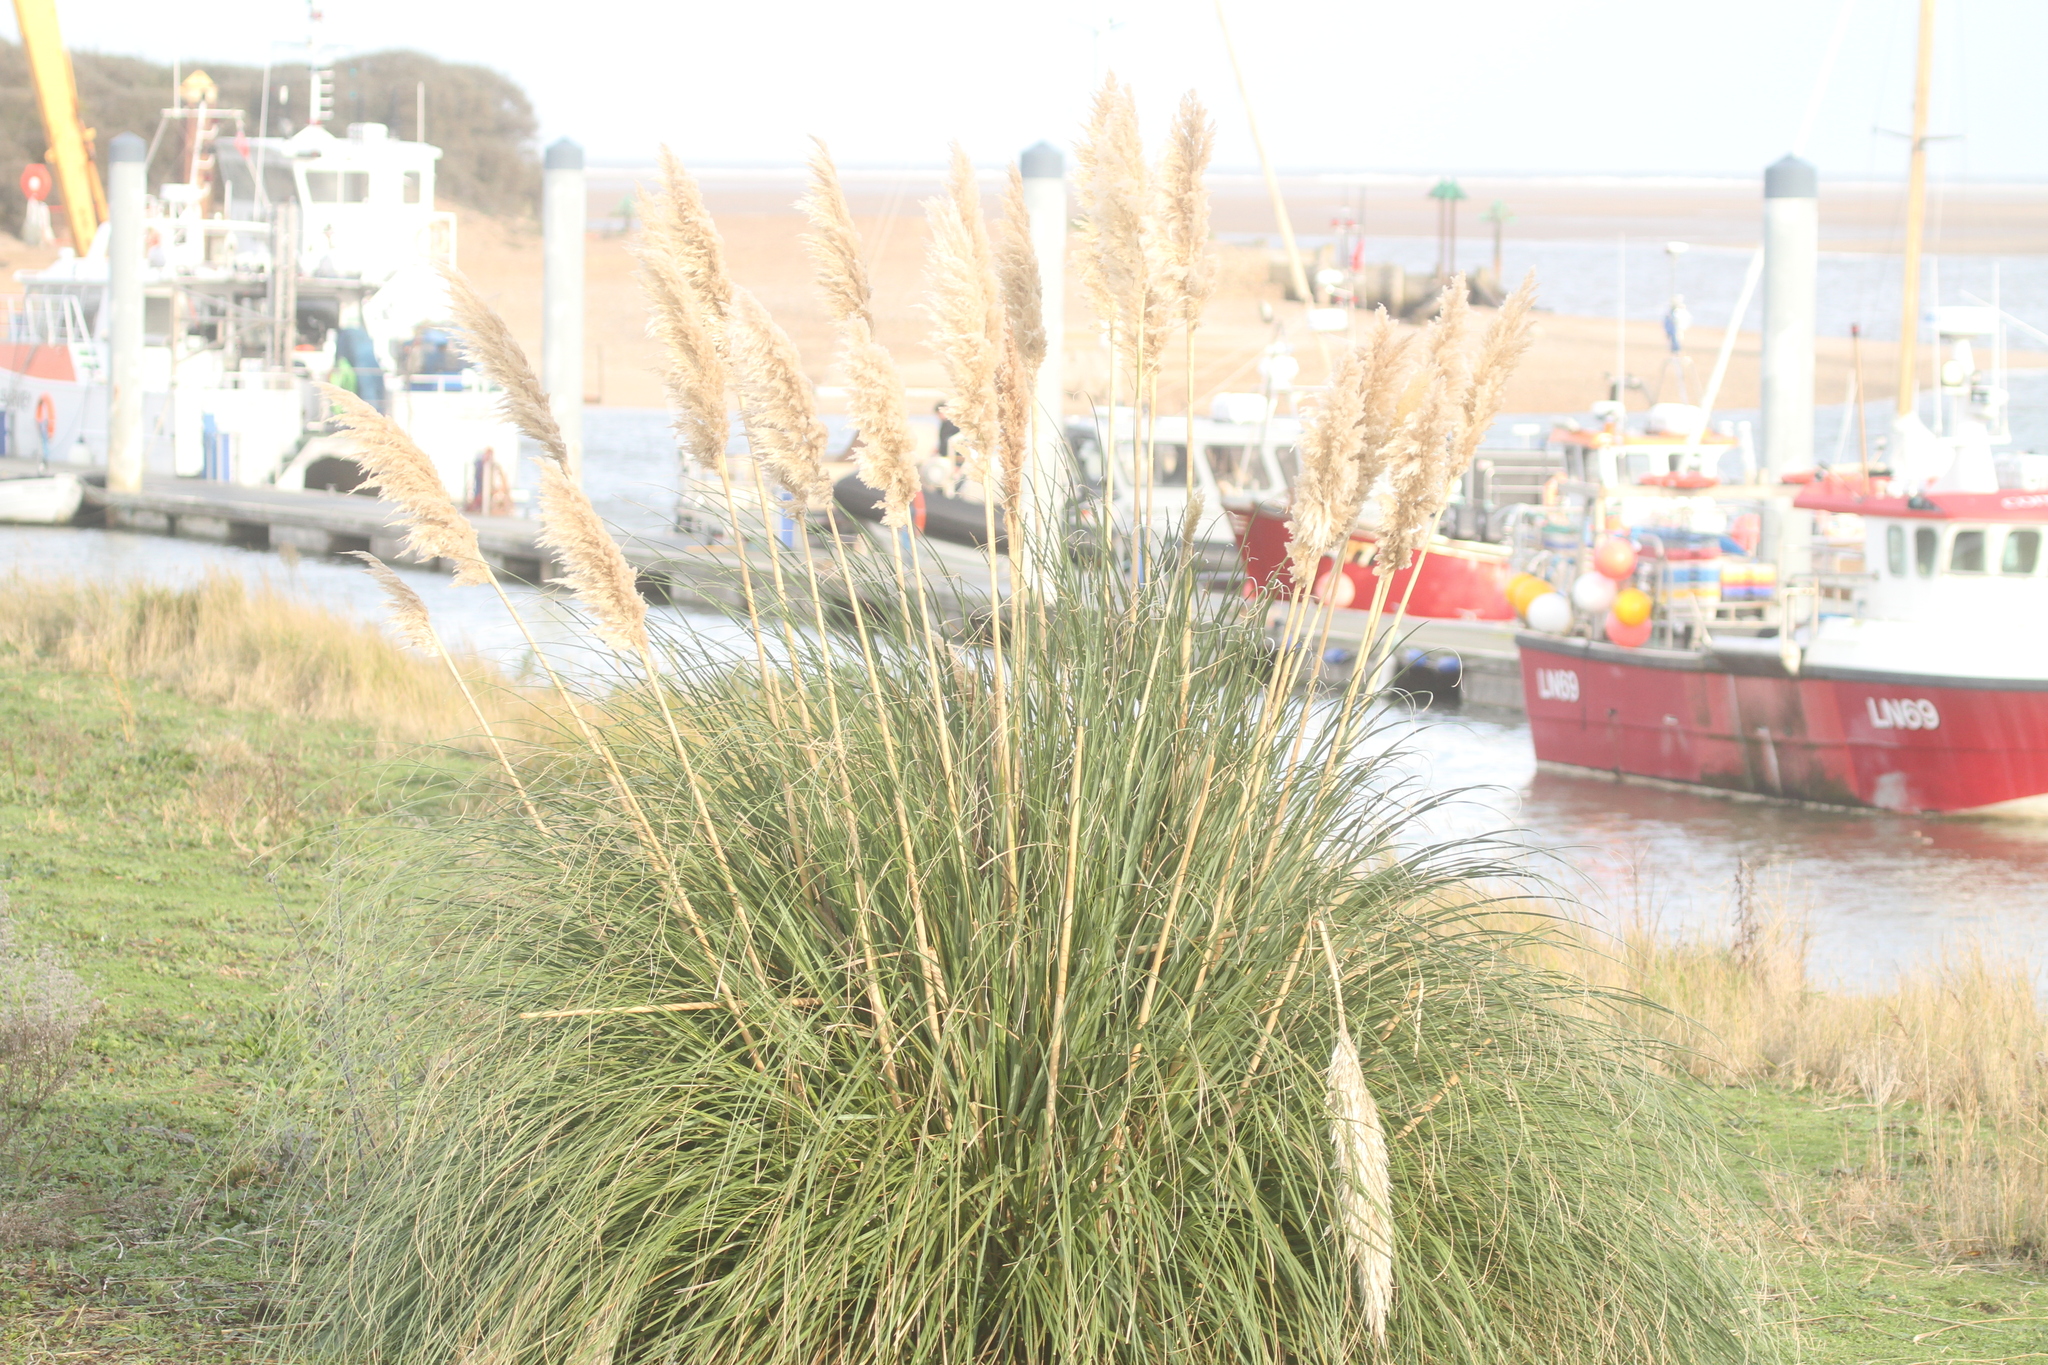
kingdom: Plantae
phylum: Tracheophyta
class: Liliopsida
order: Poales
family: Poaceae
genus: Cortaderia
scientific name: Cortaderia selloana
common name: Uruguayan pampas grass
